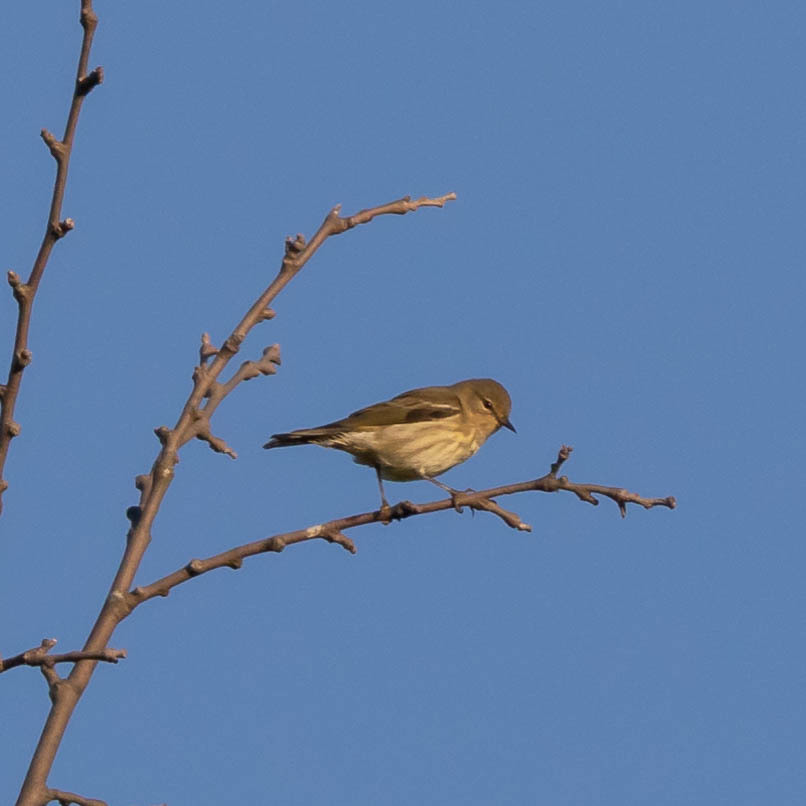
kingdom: Animalia
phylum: Chordata
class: Aves
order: Passeriformes
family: Parulidae
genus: Setophaga
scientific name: Setophaga tigrina
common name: Cape may warbler
